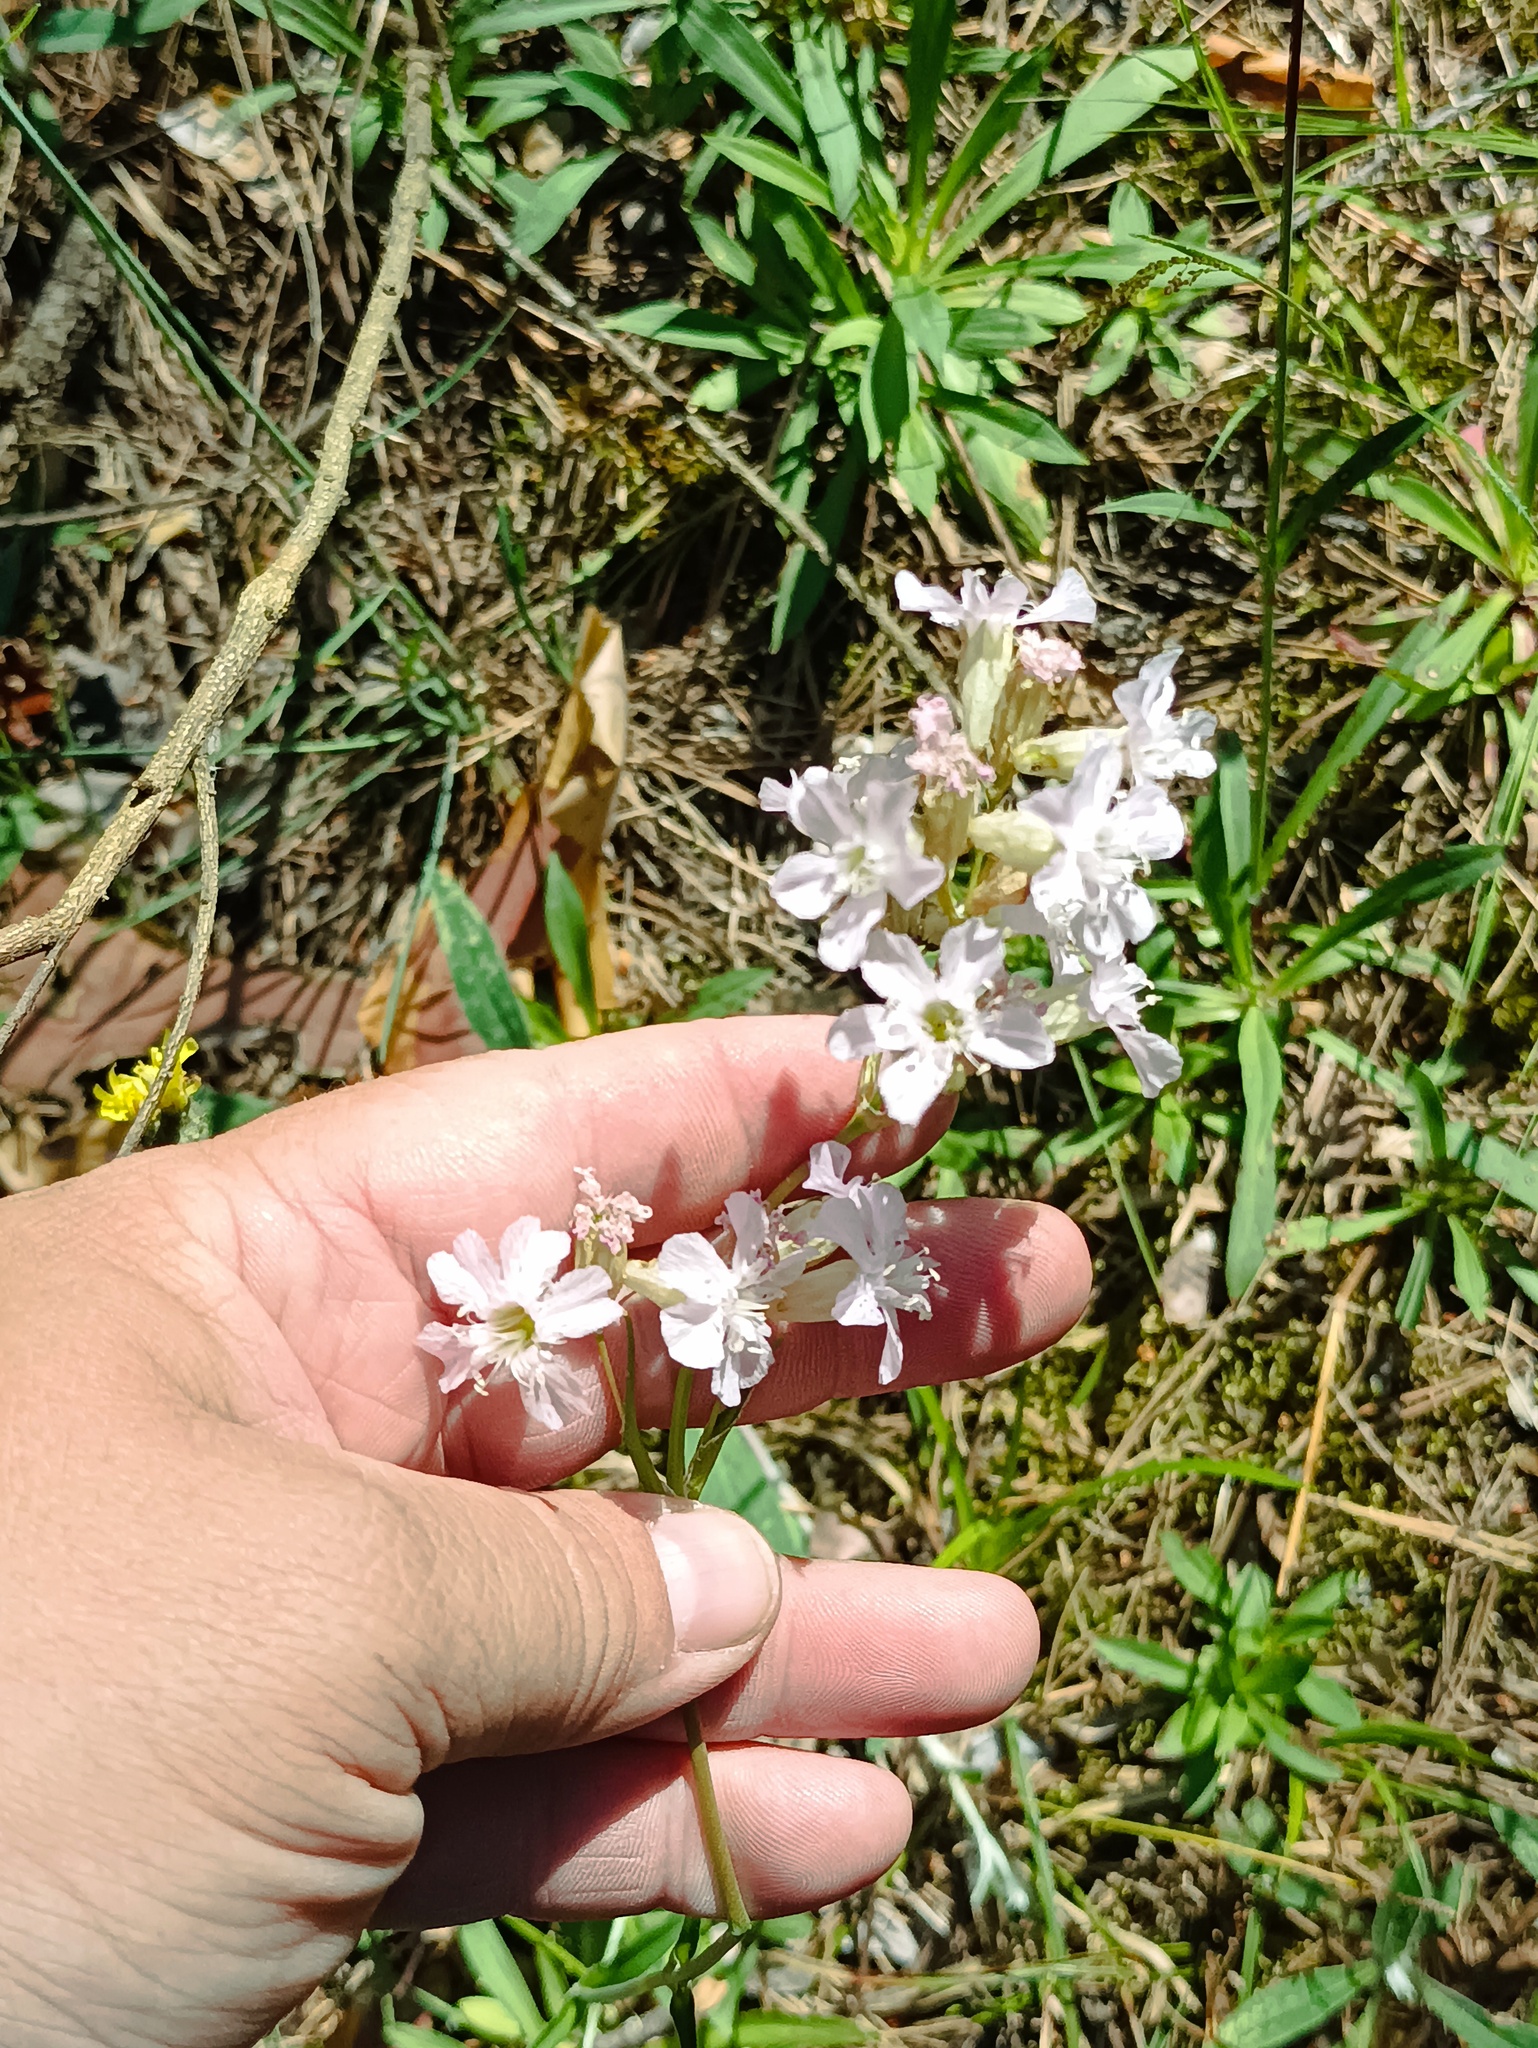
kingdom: Plantae
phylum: Tracheophyta
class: Magnoliopsida
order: Caryophyllales
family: Caryophyllaceae
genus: Viscaria
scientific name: Viscaria vulgaris
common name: Clammy campion
